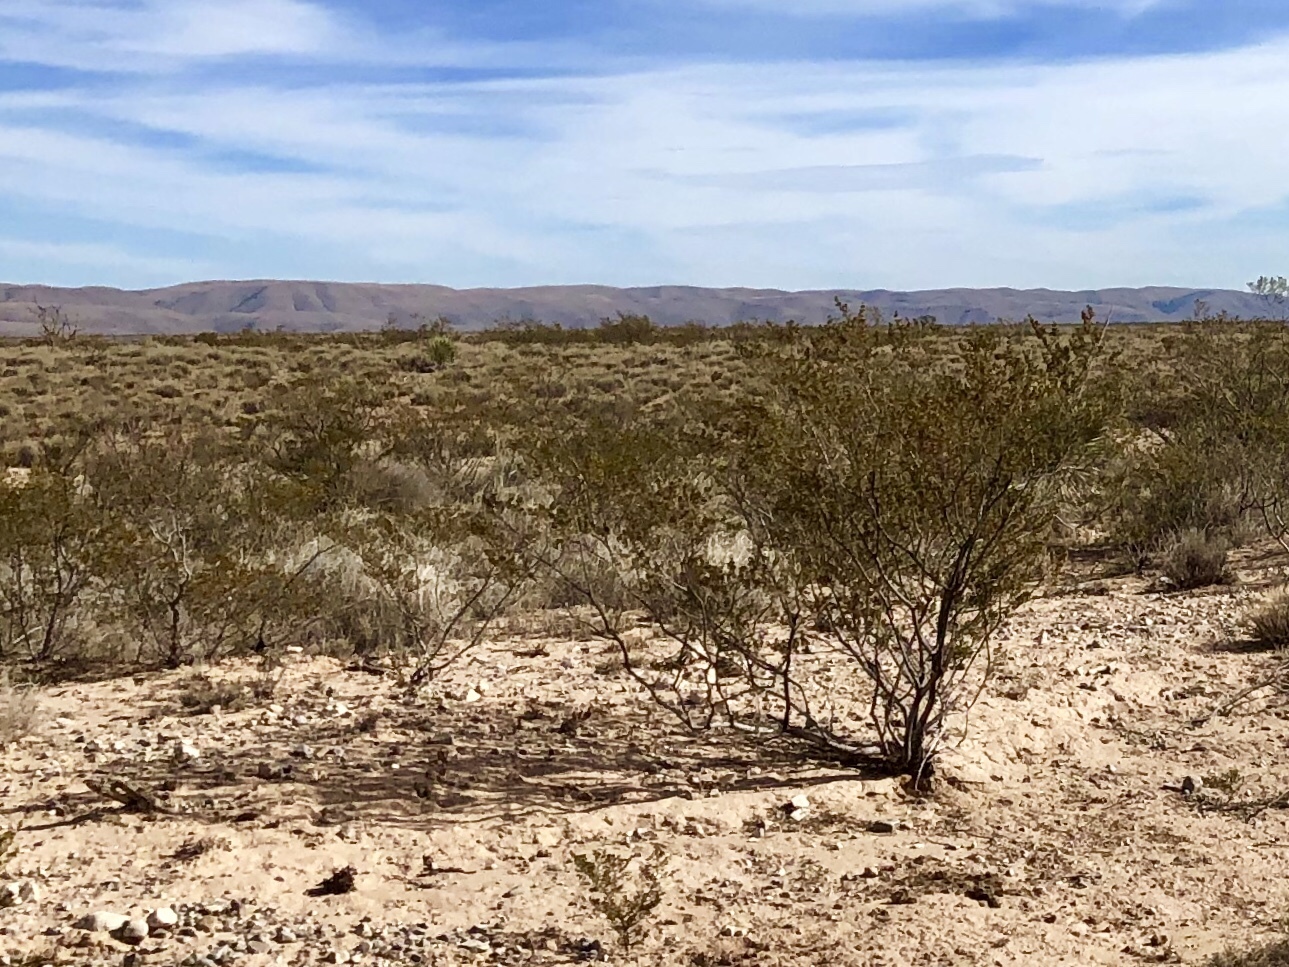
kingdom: Plantae
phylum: Tracheophyta
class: Magnoliopsida
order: Zygophyllales
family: Zygophyllaceae
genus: Larrea
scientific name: Larrea tridentata
